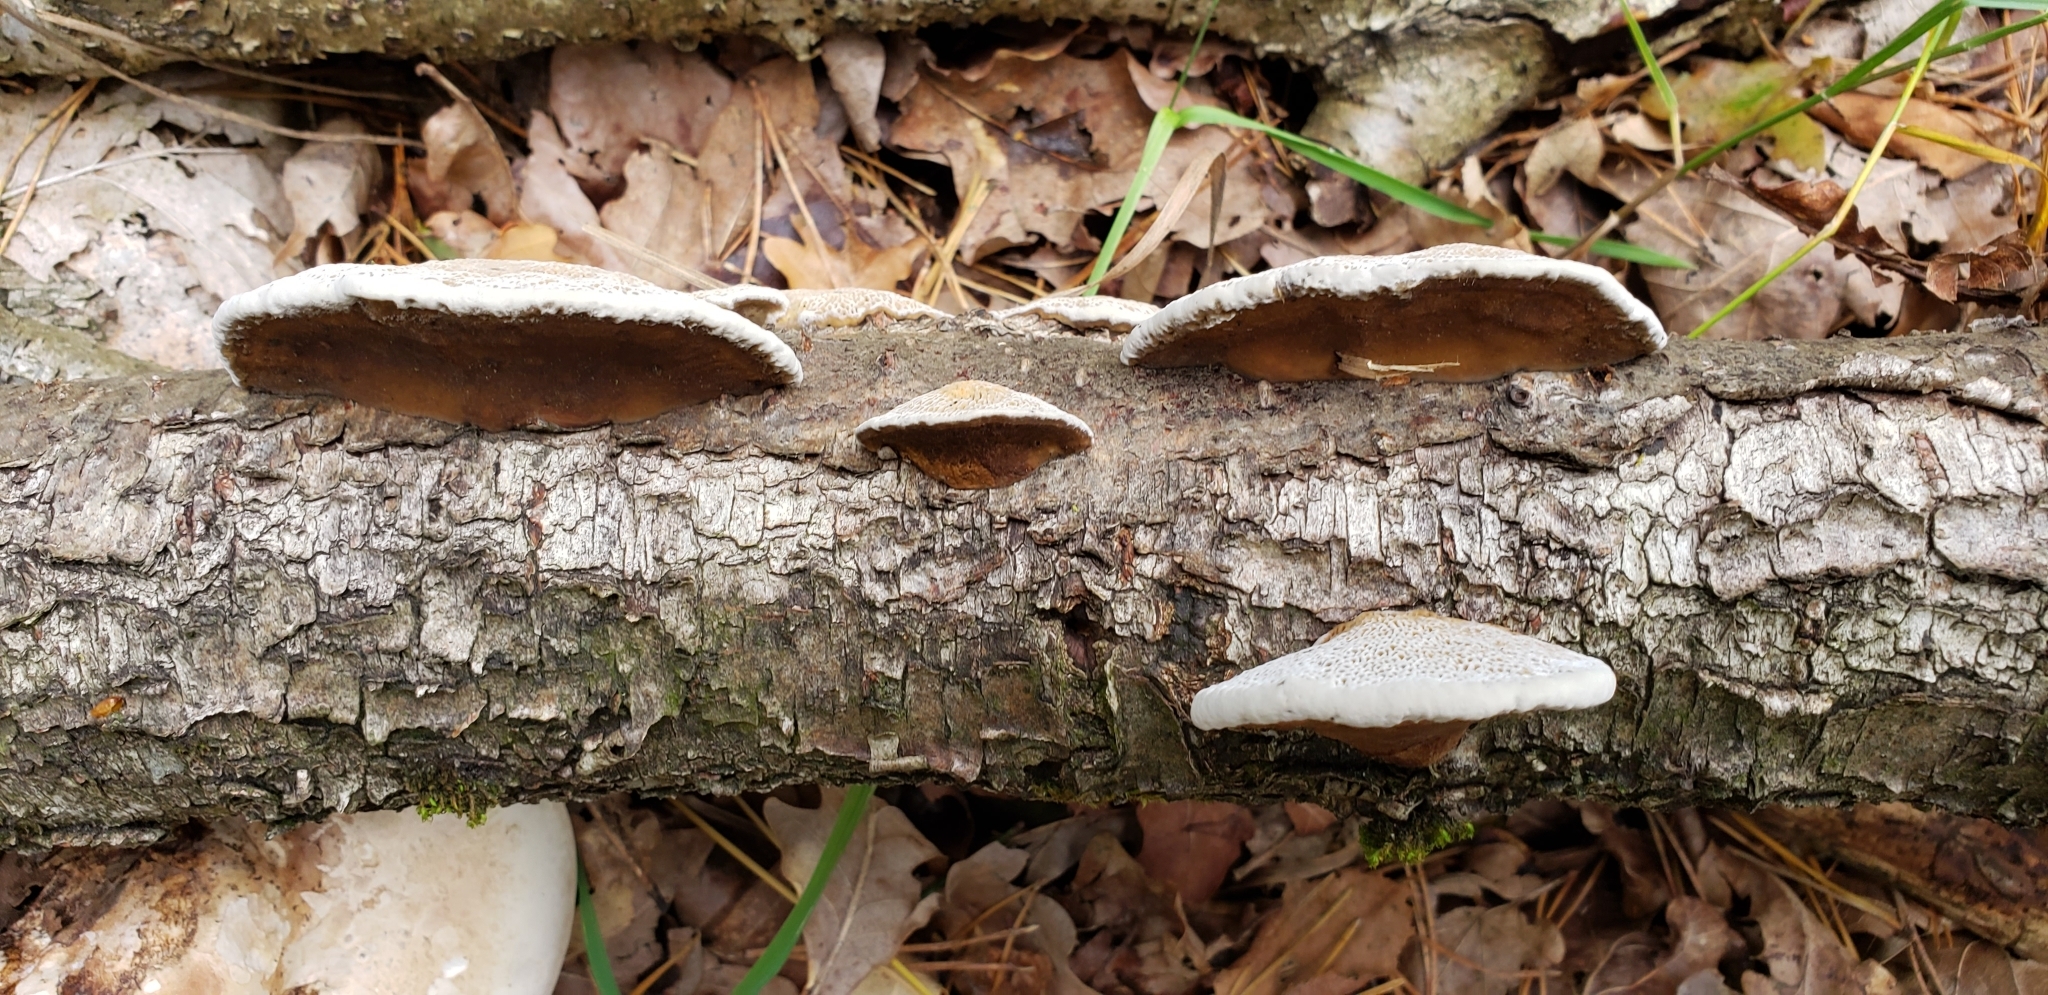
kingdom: Fungi
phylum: Basidiomycota
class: Agaricomycetes
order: Polyporales
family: Polyporaceae
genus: Daedaleopsis
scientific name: Daedaleopsis confragosa
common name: Blushing bracket
